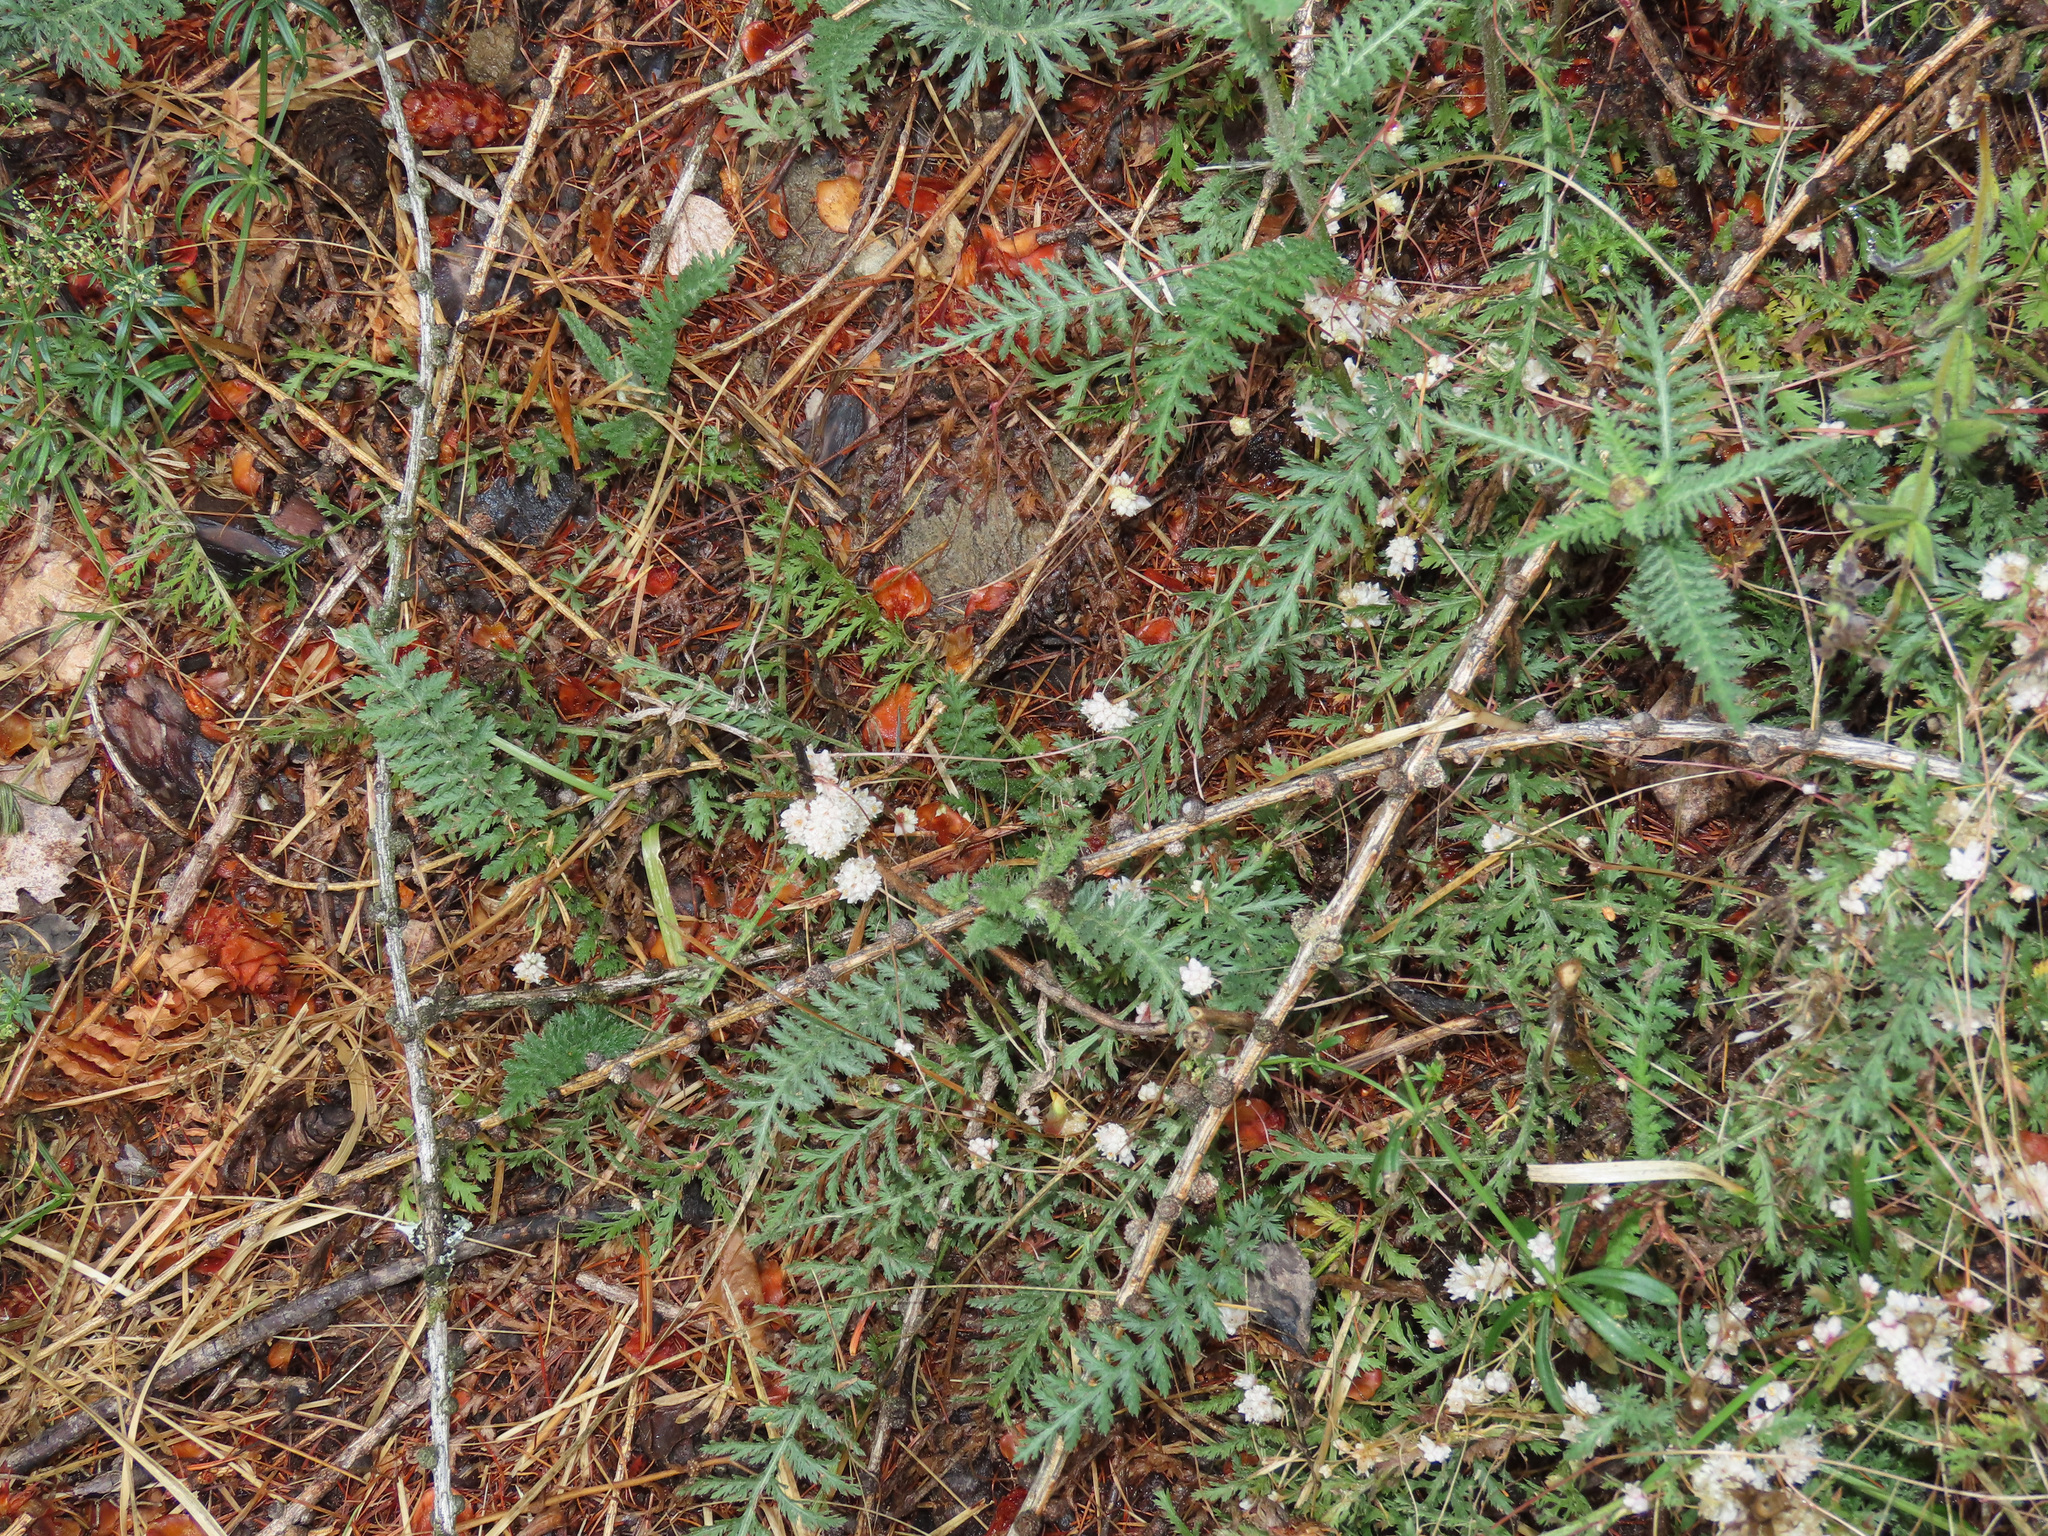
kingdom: Plantae
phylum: Tracheophyta
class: Magnoliopsida
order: Solanales
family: Convolvulaceae
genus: Cuscuta
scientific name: Cuscuta epithymum
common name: Clover dodder
